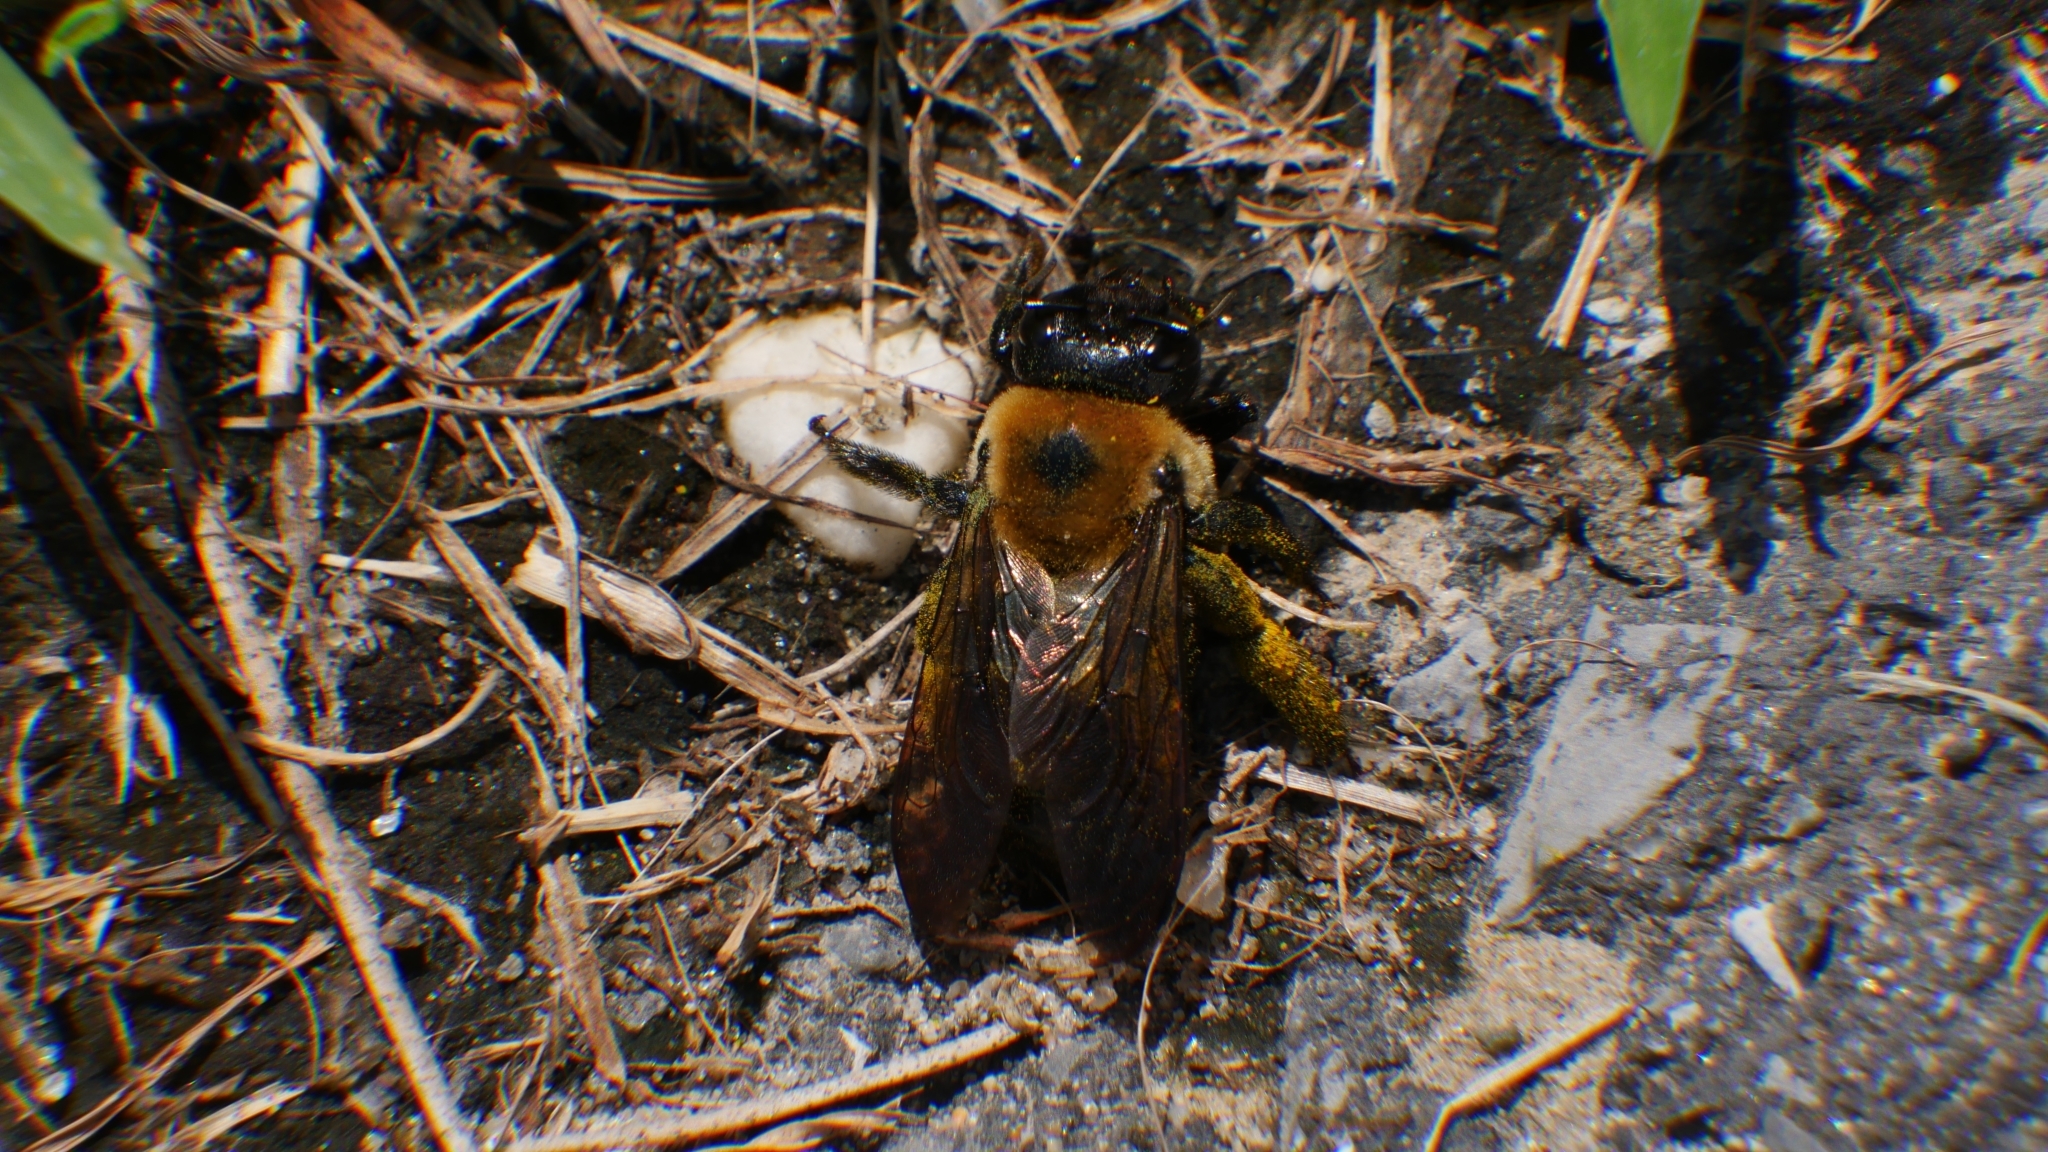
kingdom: Animalia
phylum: Arthropoda
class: Insecta
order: Hymenoptera
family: Apidae
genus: Xylocopa
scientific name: Xylocopa virginica
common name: Carpenter bee
